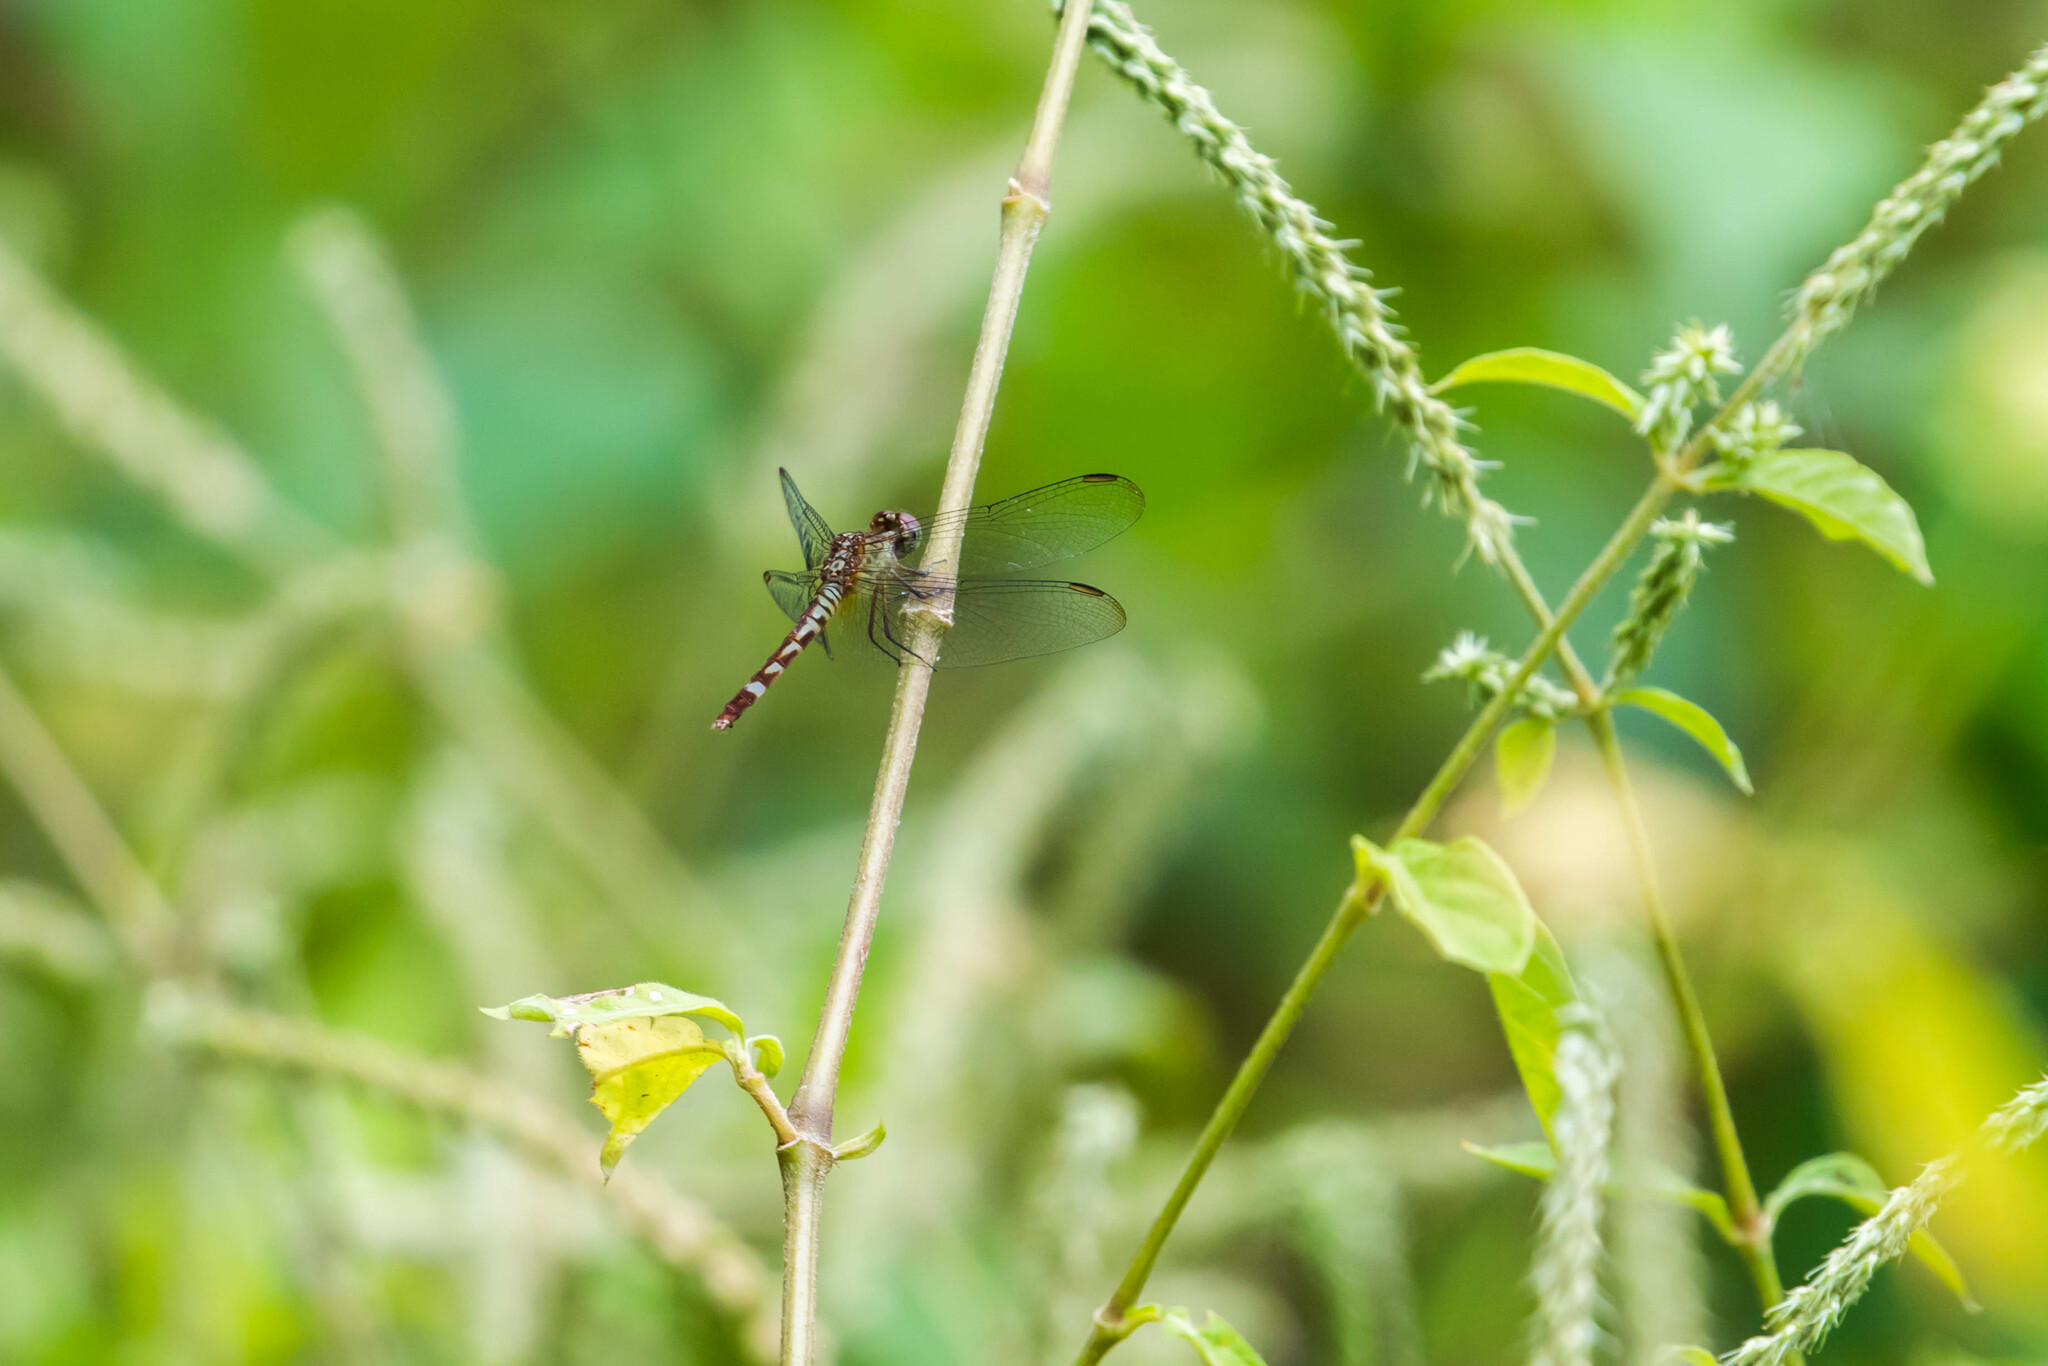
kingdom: Animalia
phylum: Arthropoda
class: Insecta
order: Odonata
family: Libellulidae
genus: Erythrodiplax
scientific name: Erythrodiplax fervida
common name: Red-mantled dragonlet
